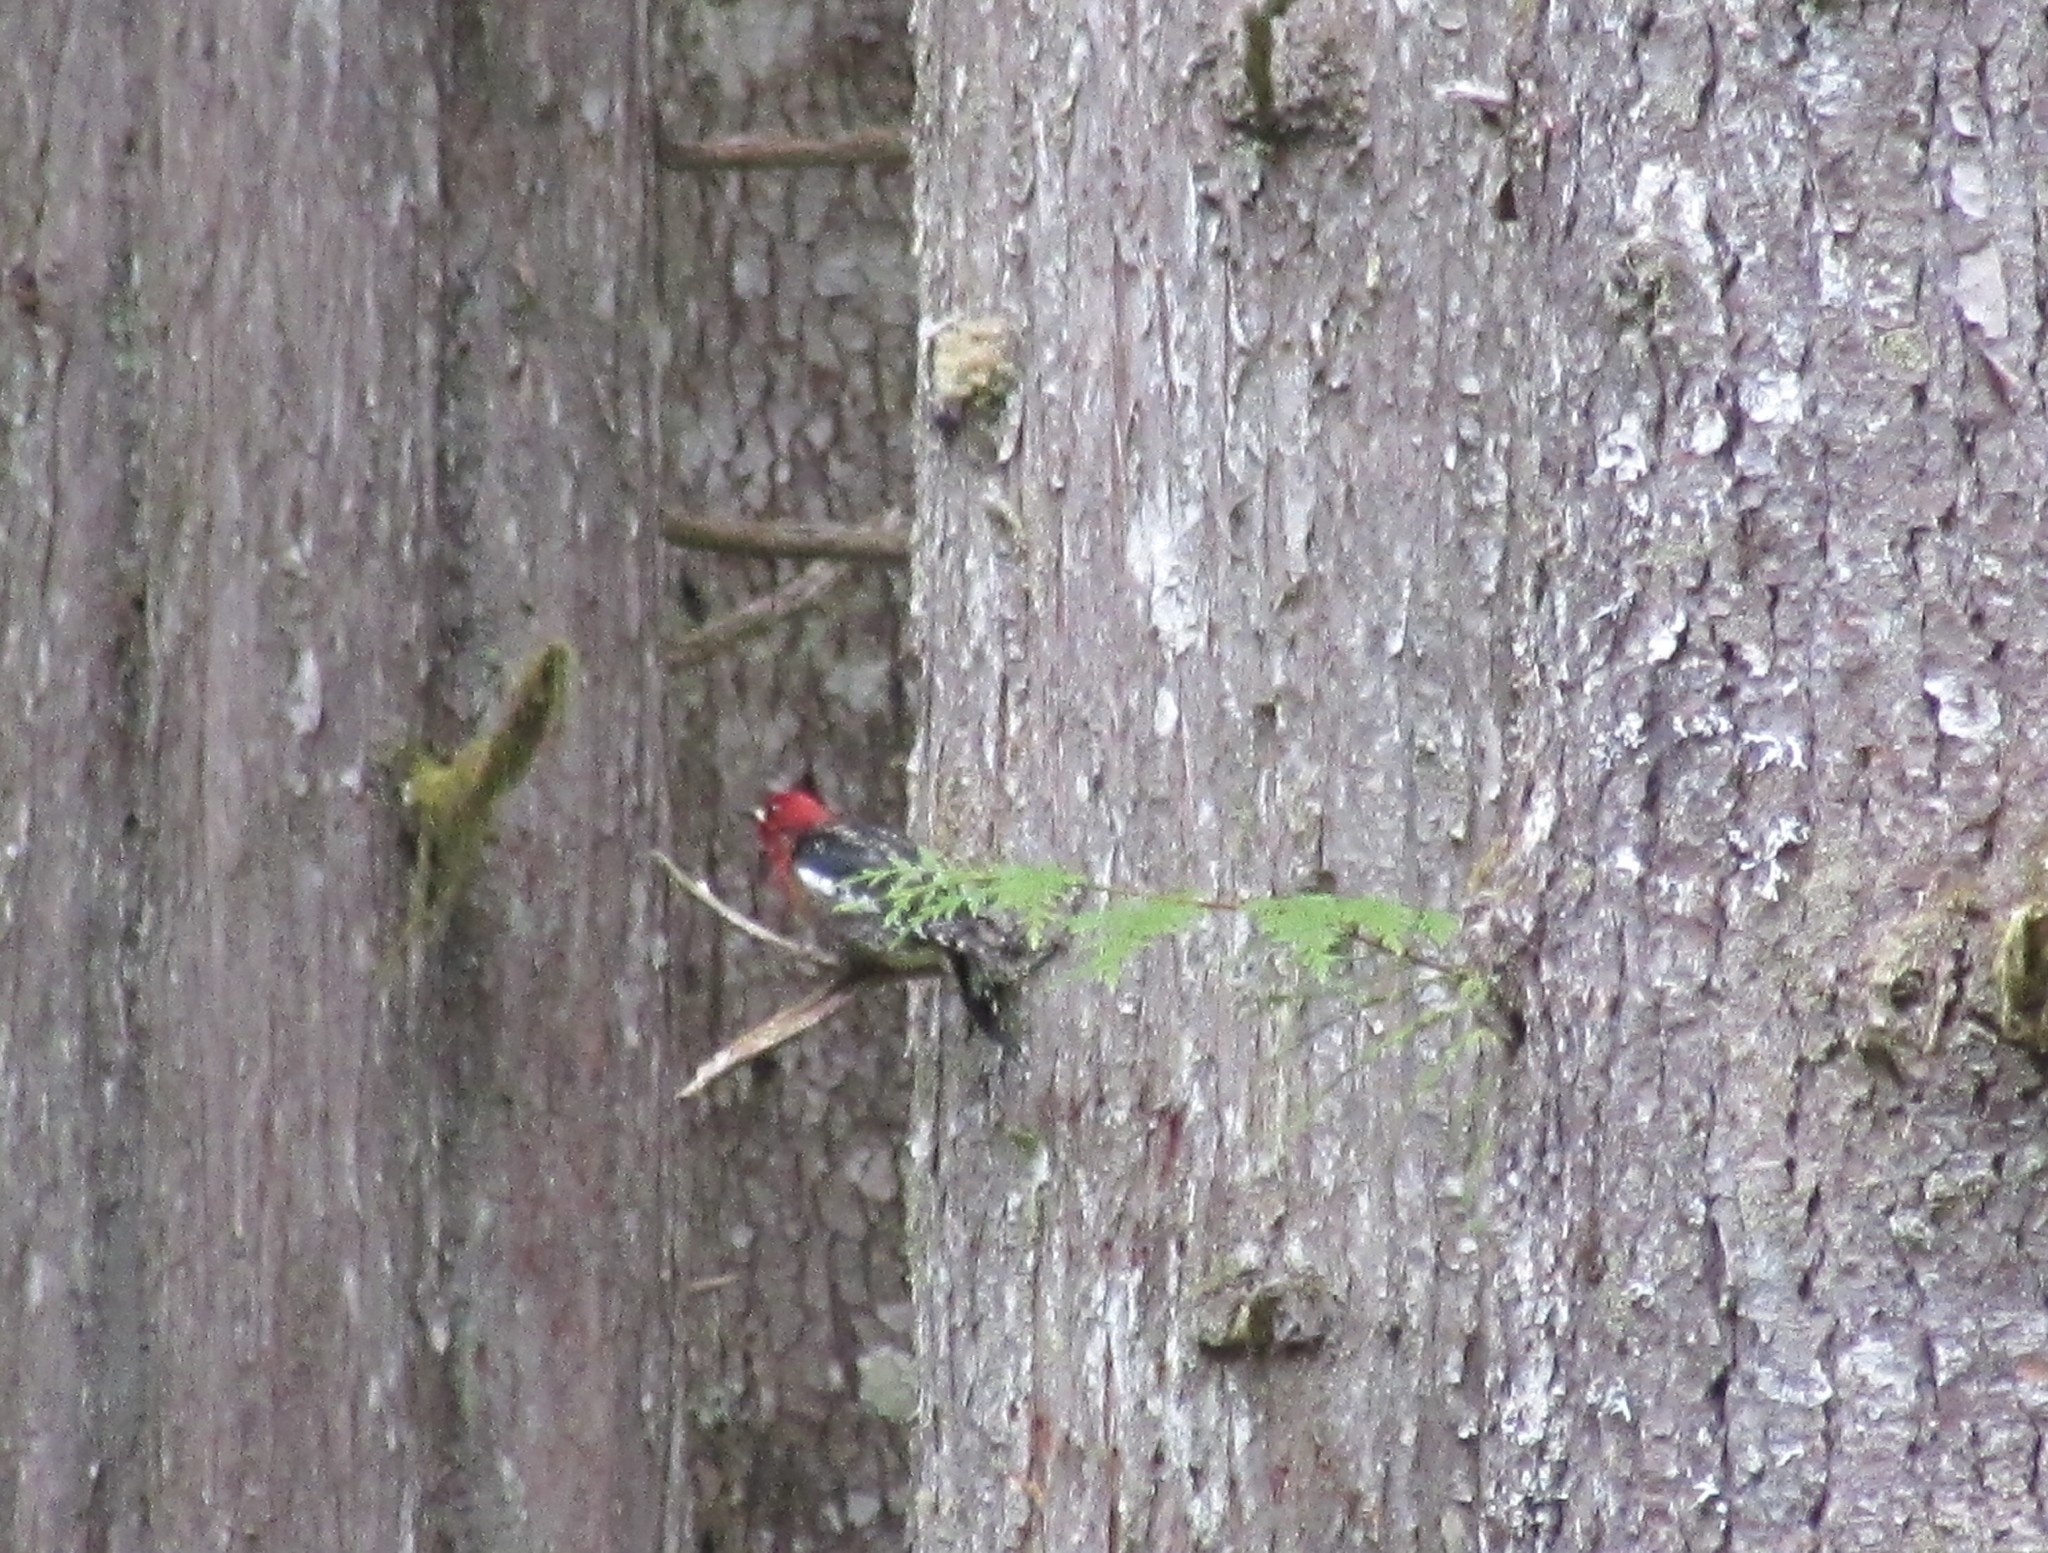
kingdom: Animalia
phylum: Chordata
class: Aves
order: Piciformes
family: Picidae
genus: Sphyrapicus
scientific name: Sphyrapicus ruber
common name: Red-breasted sapsucker
